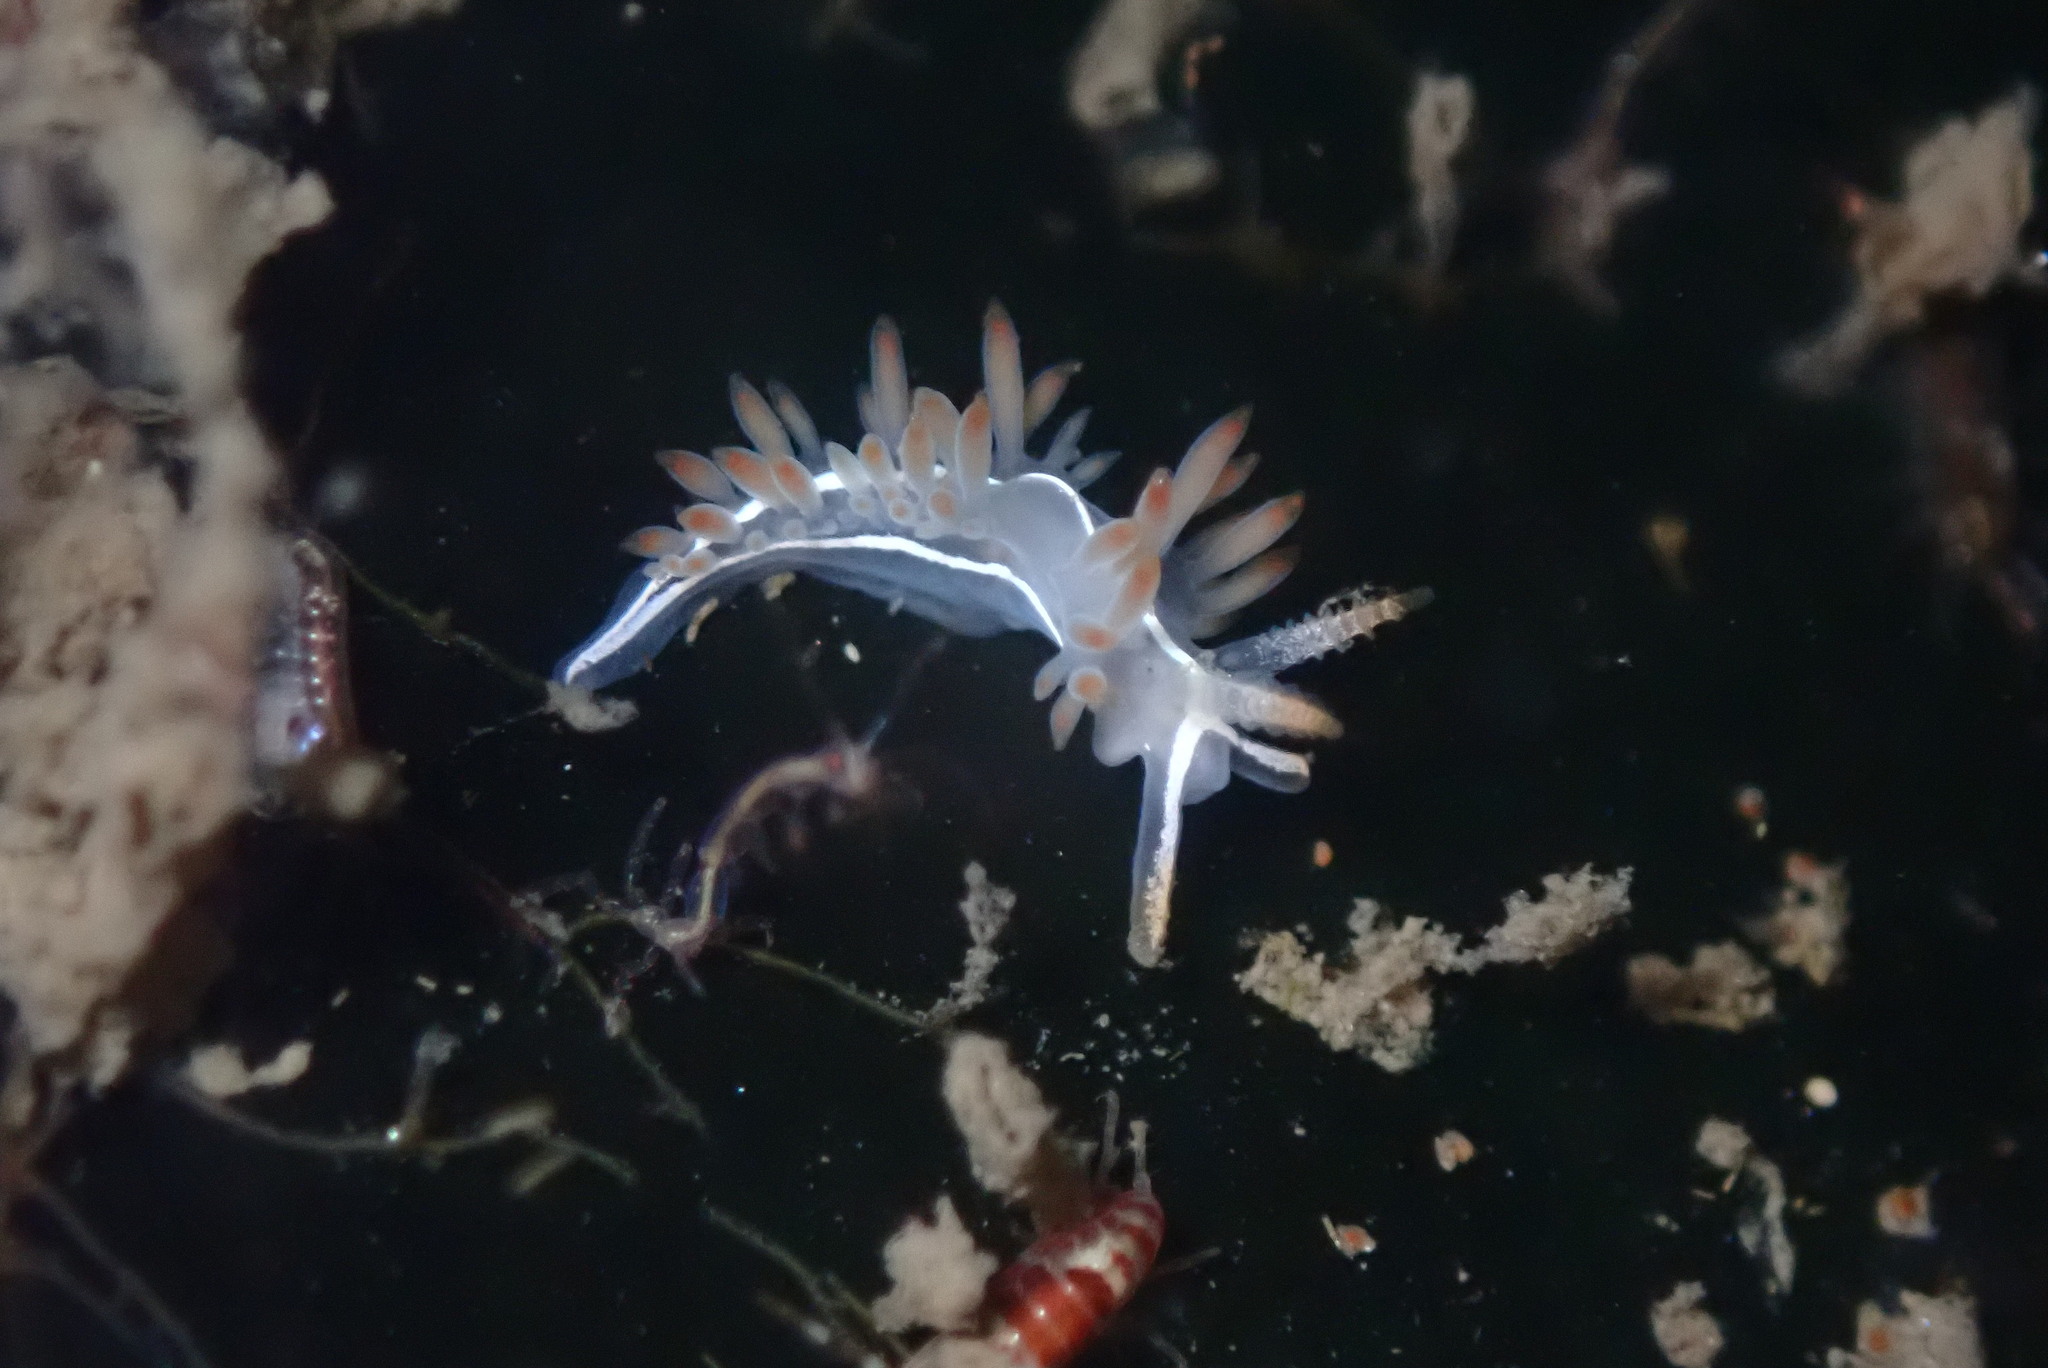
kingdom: Animalia
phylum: Mollusca
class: Gastropoda
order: Nudibranchia
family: Coryphellidae
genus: Coryphella
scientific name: Coryphella trilineata
